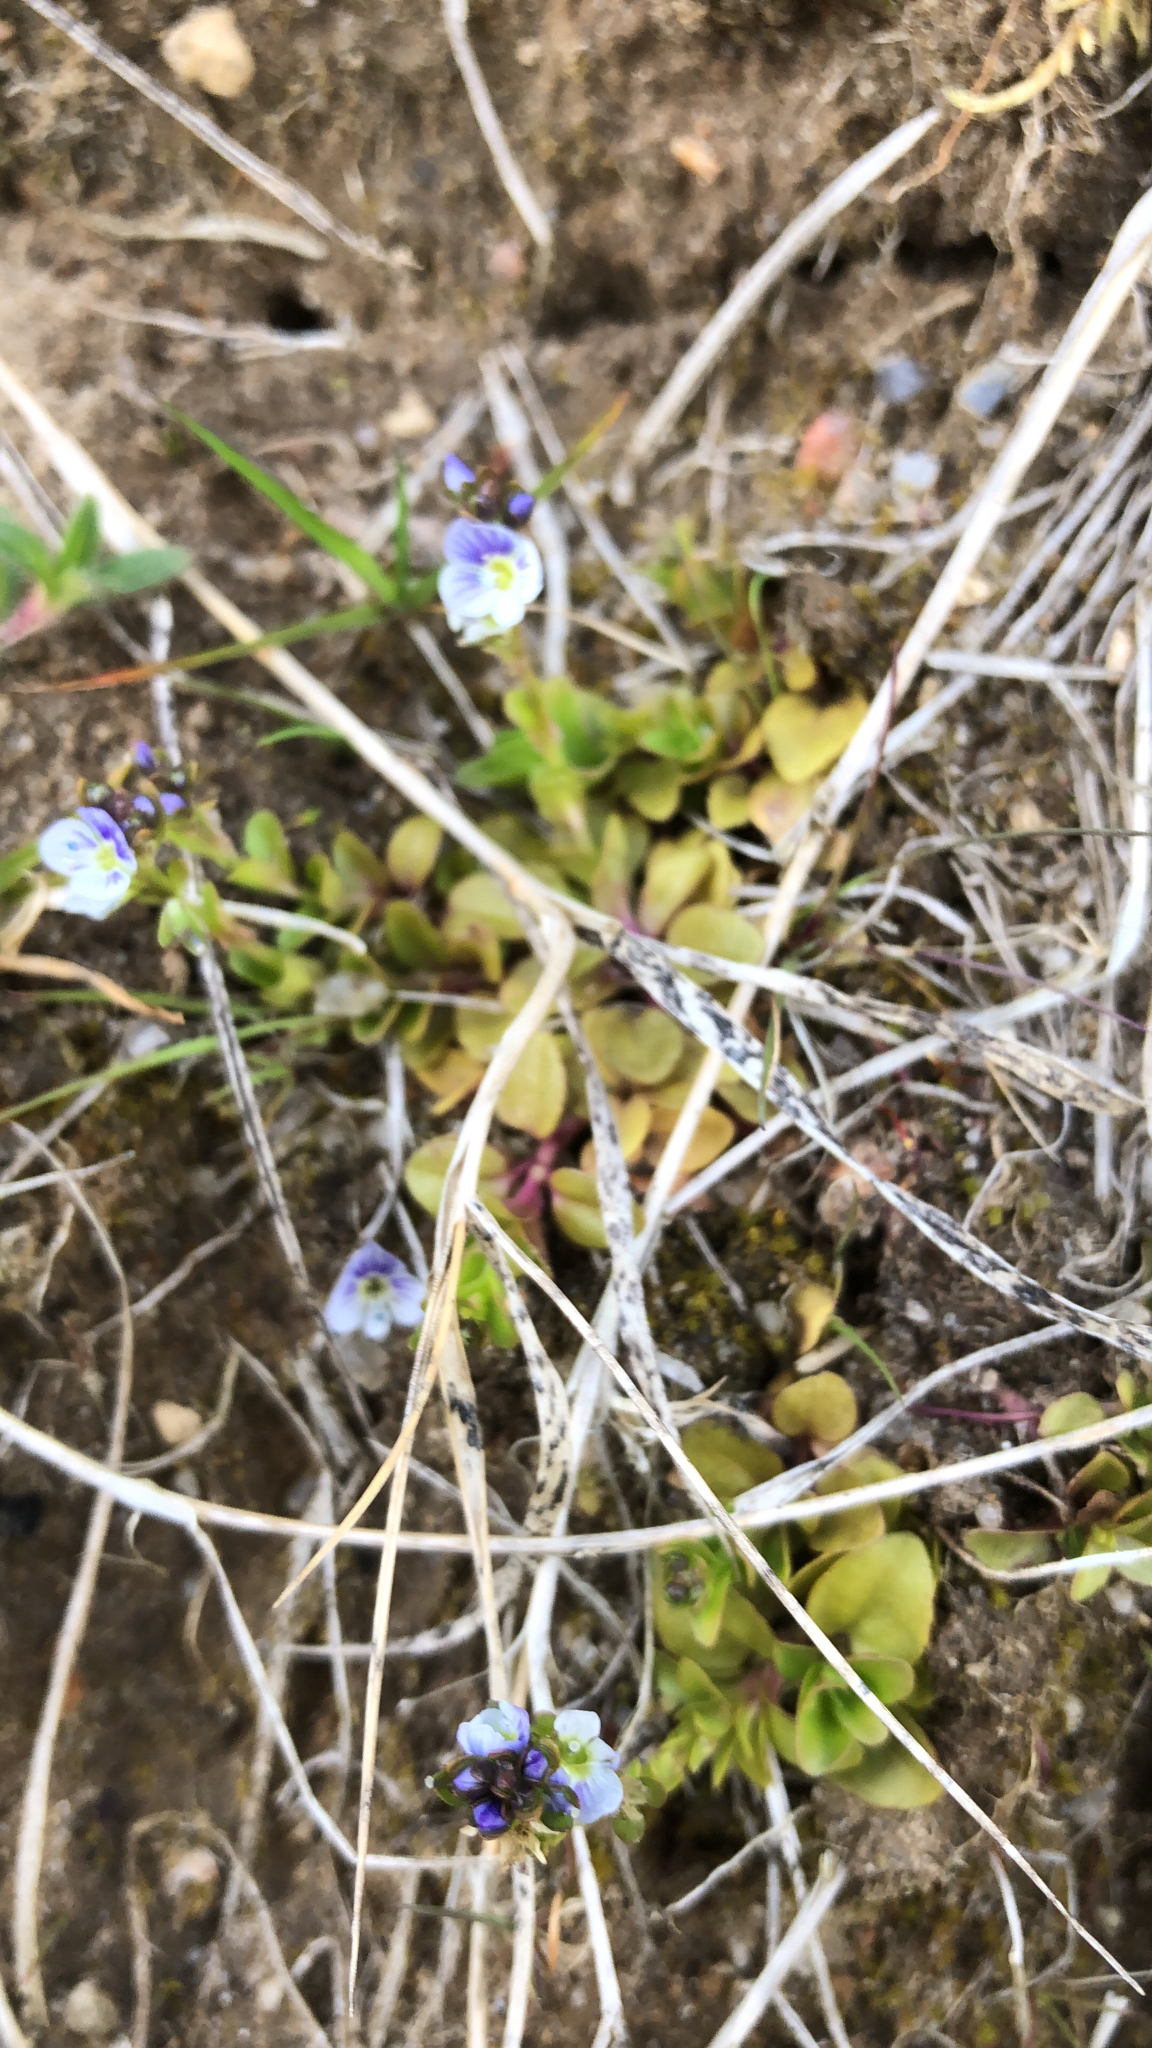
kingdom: Plantae
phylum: Tracheophyta
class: Magnoliopsida
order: Lamiales
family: Plantaginaceae
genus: Veronica
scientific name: Veronica serpyllifolia
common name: Thyme-leaved speedwell
